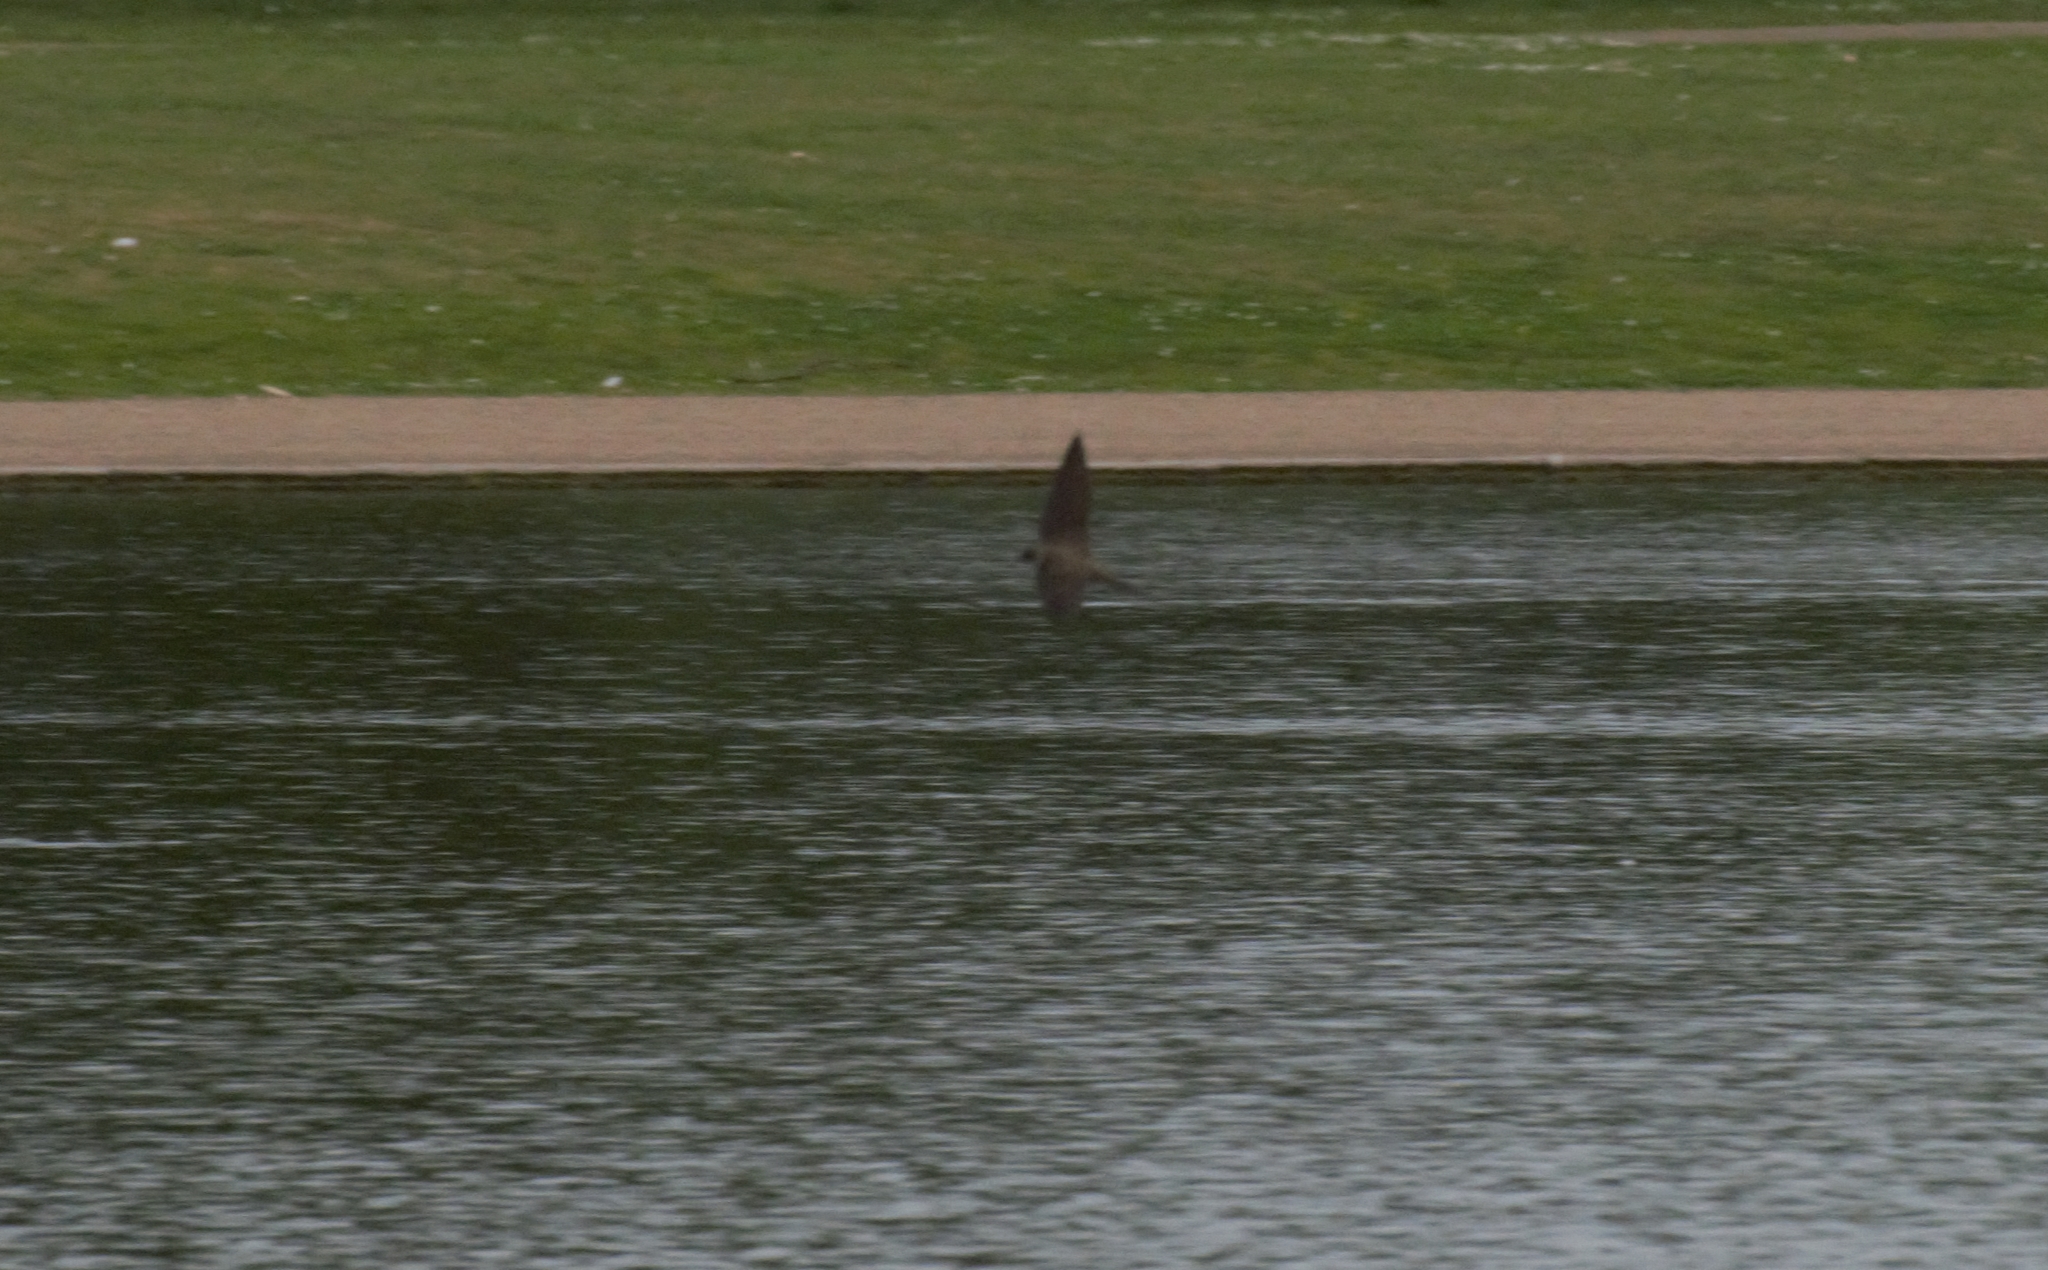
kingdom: Animalia
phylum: Chordata
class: Aves
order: Passeriformes
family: Hirundinidae
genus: Riparia
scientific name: Riparia riparia
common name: Sand martin
